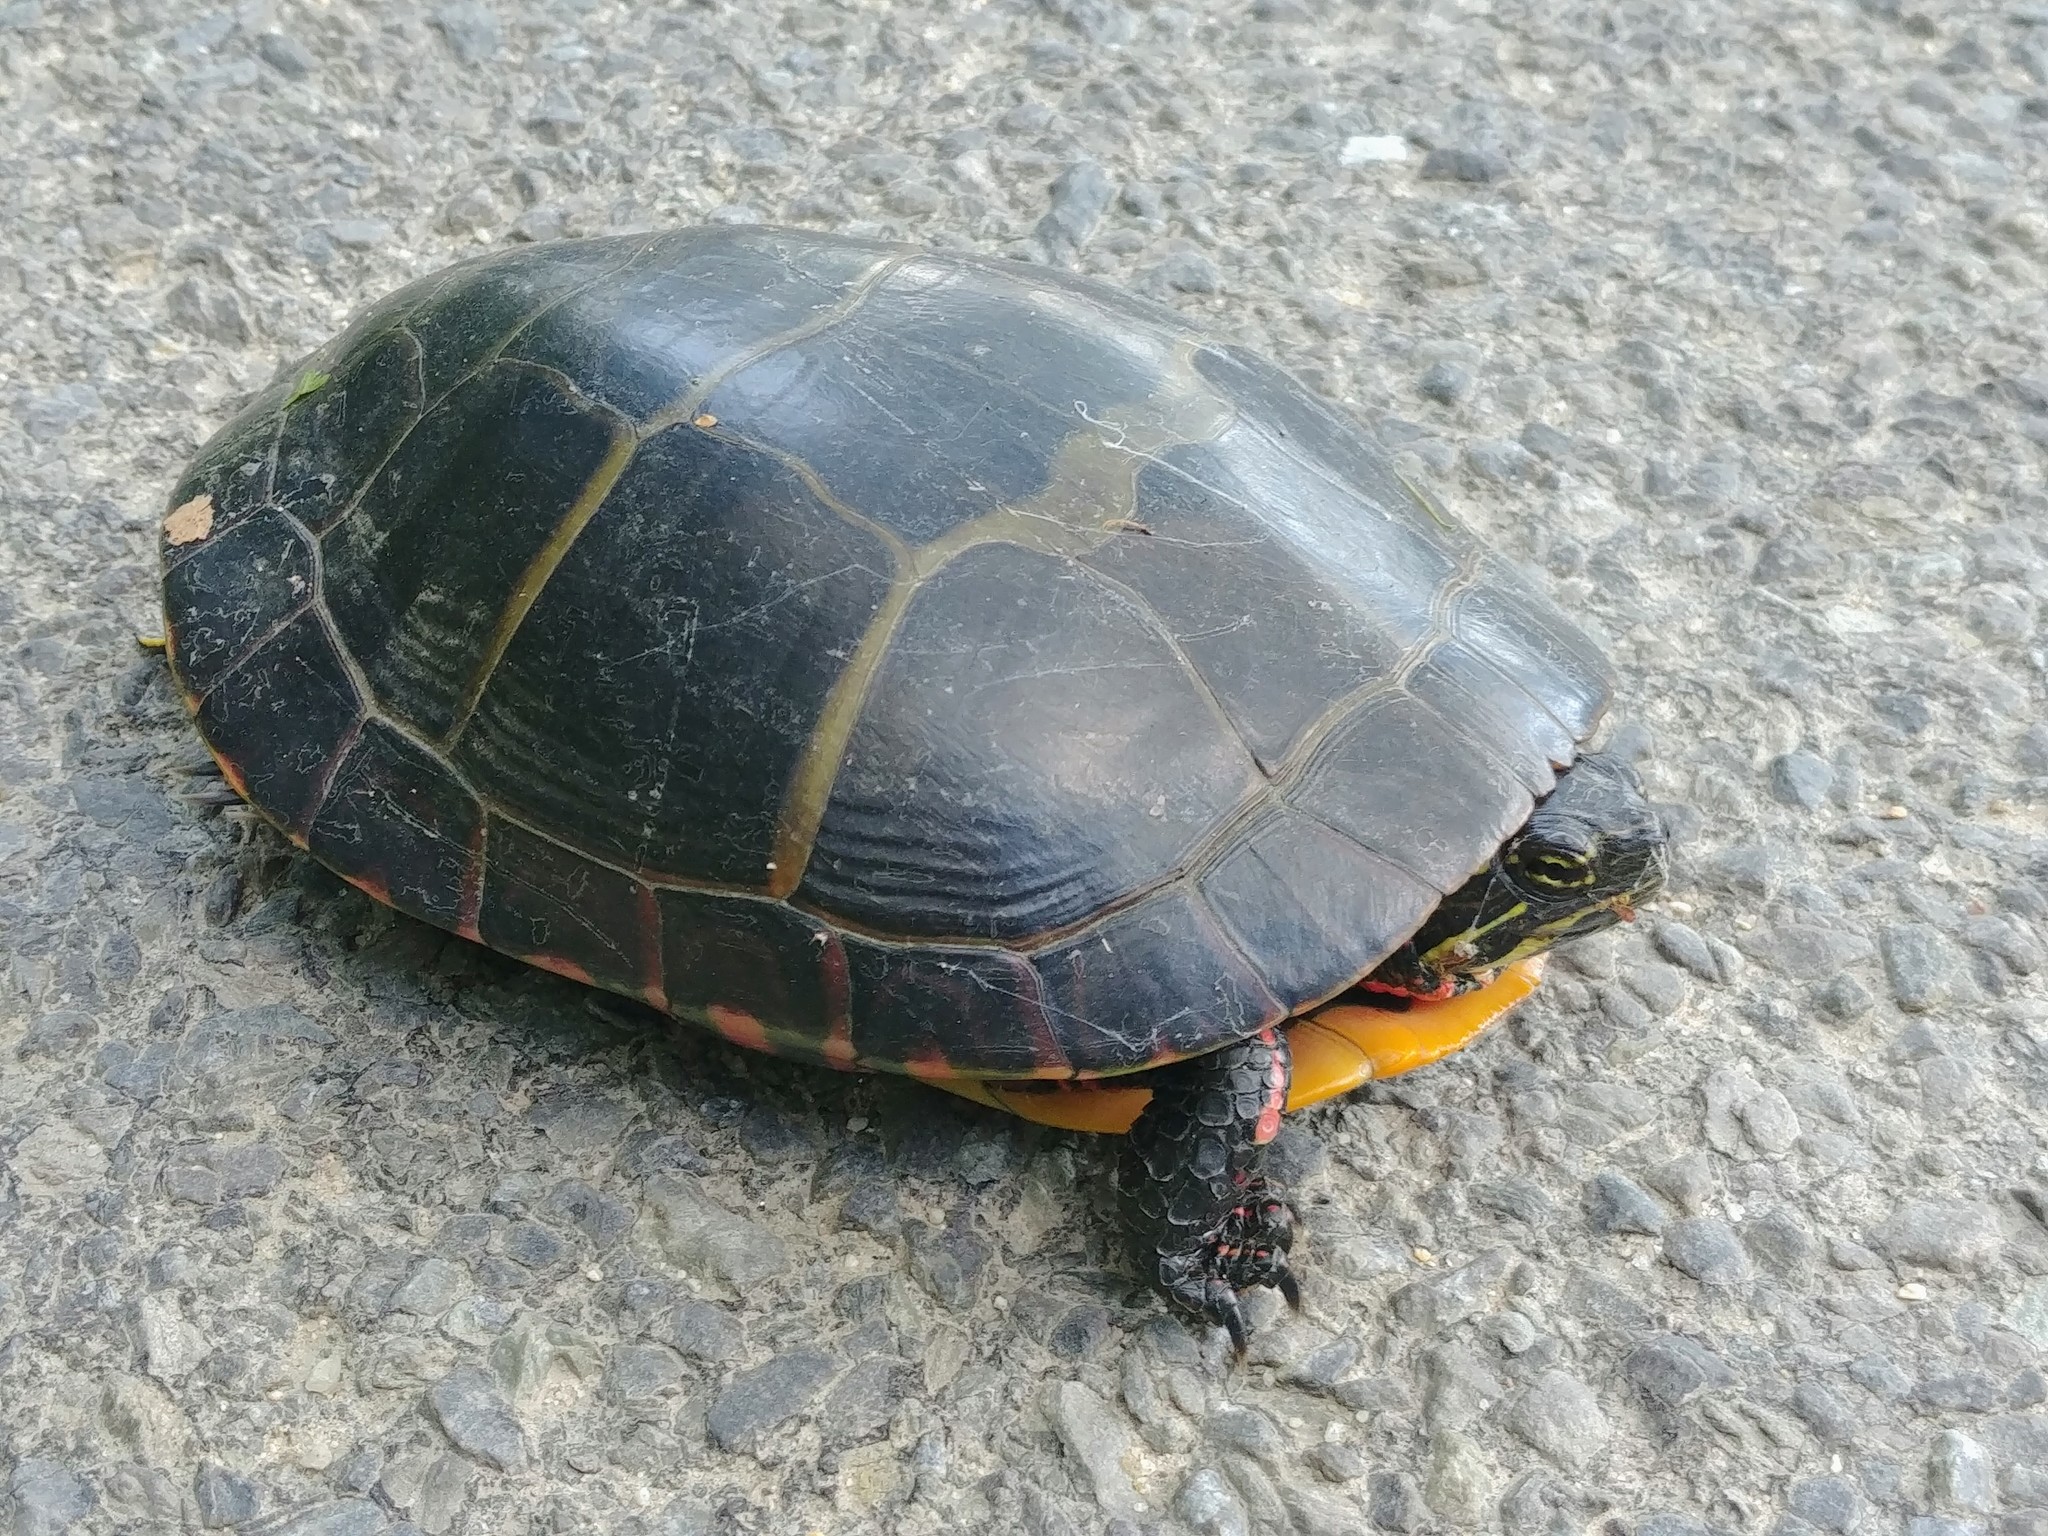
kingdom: Animalia
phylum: Chordata
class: Testudines
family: Emydidae
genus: Chrysemys
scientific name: Chrysemys picta
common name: Painted turtle
